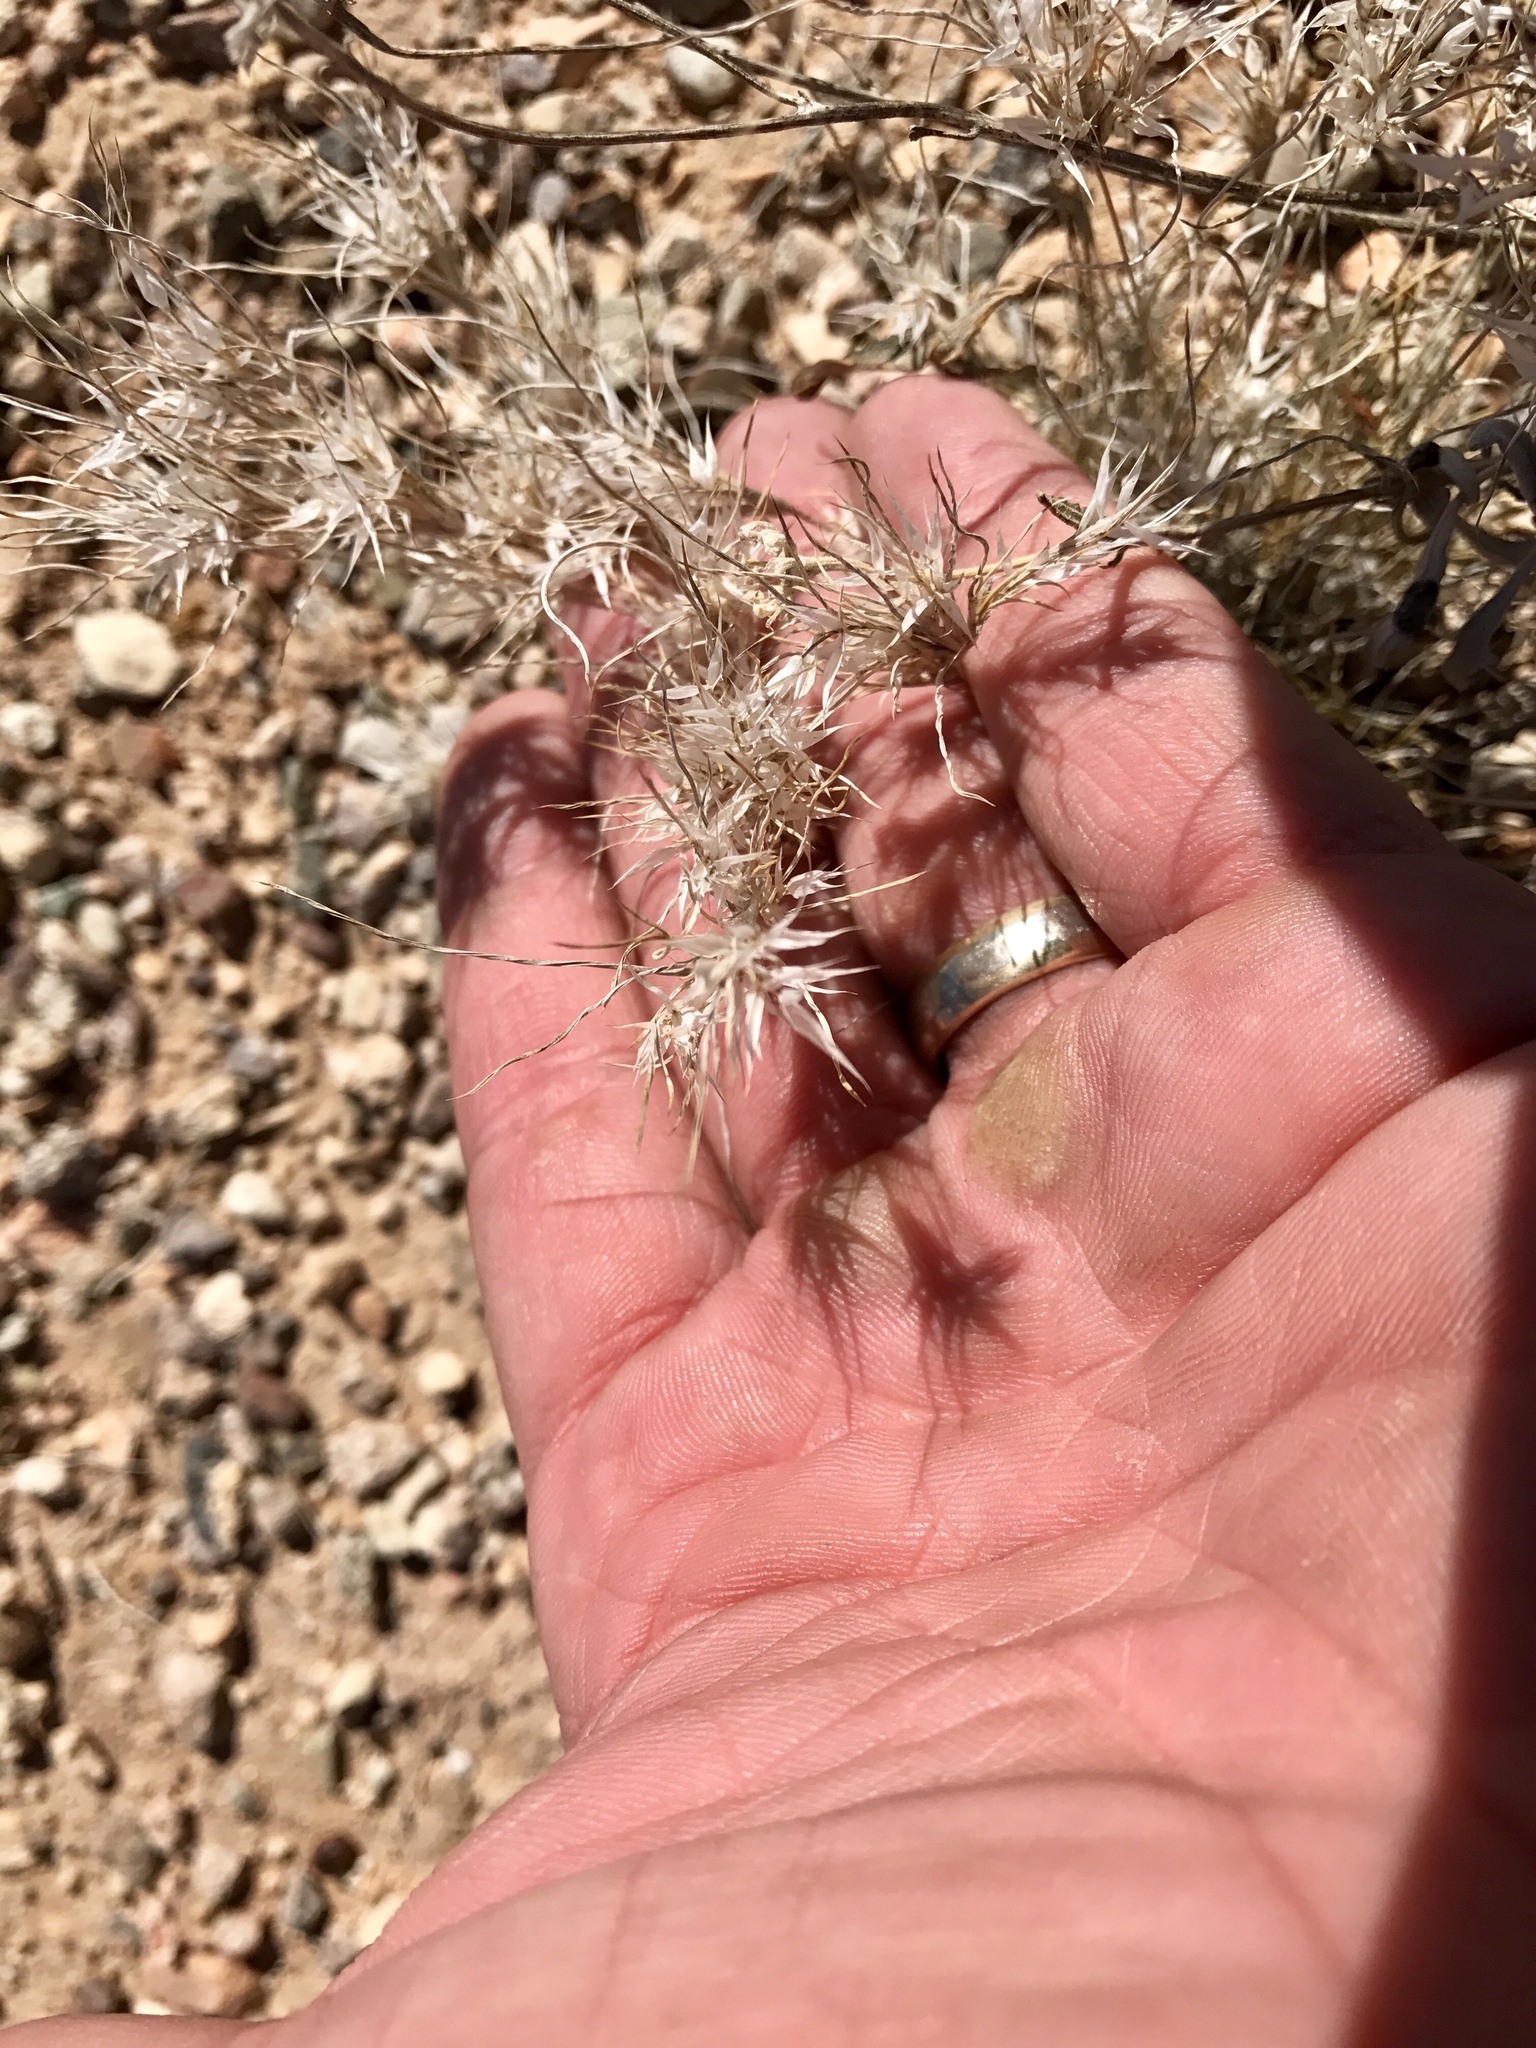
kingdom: Plantae
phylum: Tracheophyta
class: Liliopsida
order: Poales
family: Poaceae
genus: Dasyochloa
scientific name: Dasyochloa pulchella
